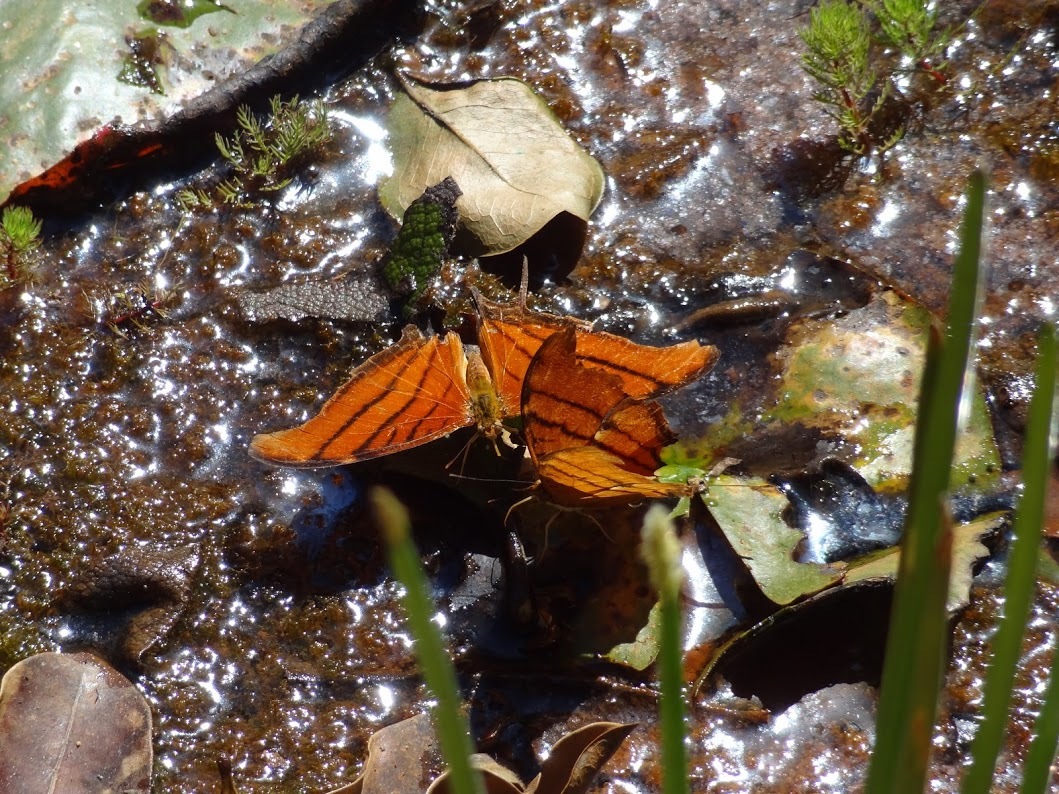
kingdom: Animalia
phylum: Arthropoda
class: Insecta
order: Lepidoptera
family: Nymphalidae
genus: Marpesia
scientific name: Marpesia petreus
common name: Red dagger wing
